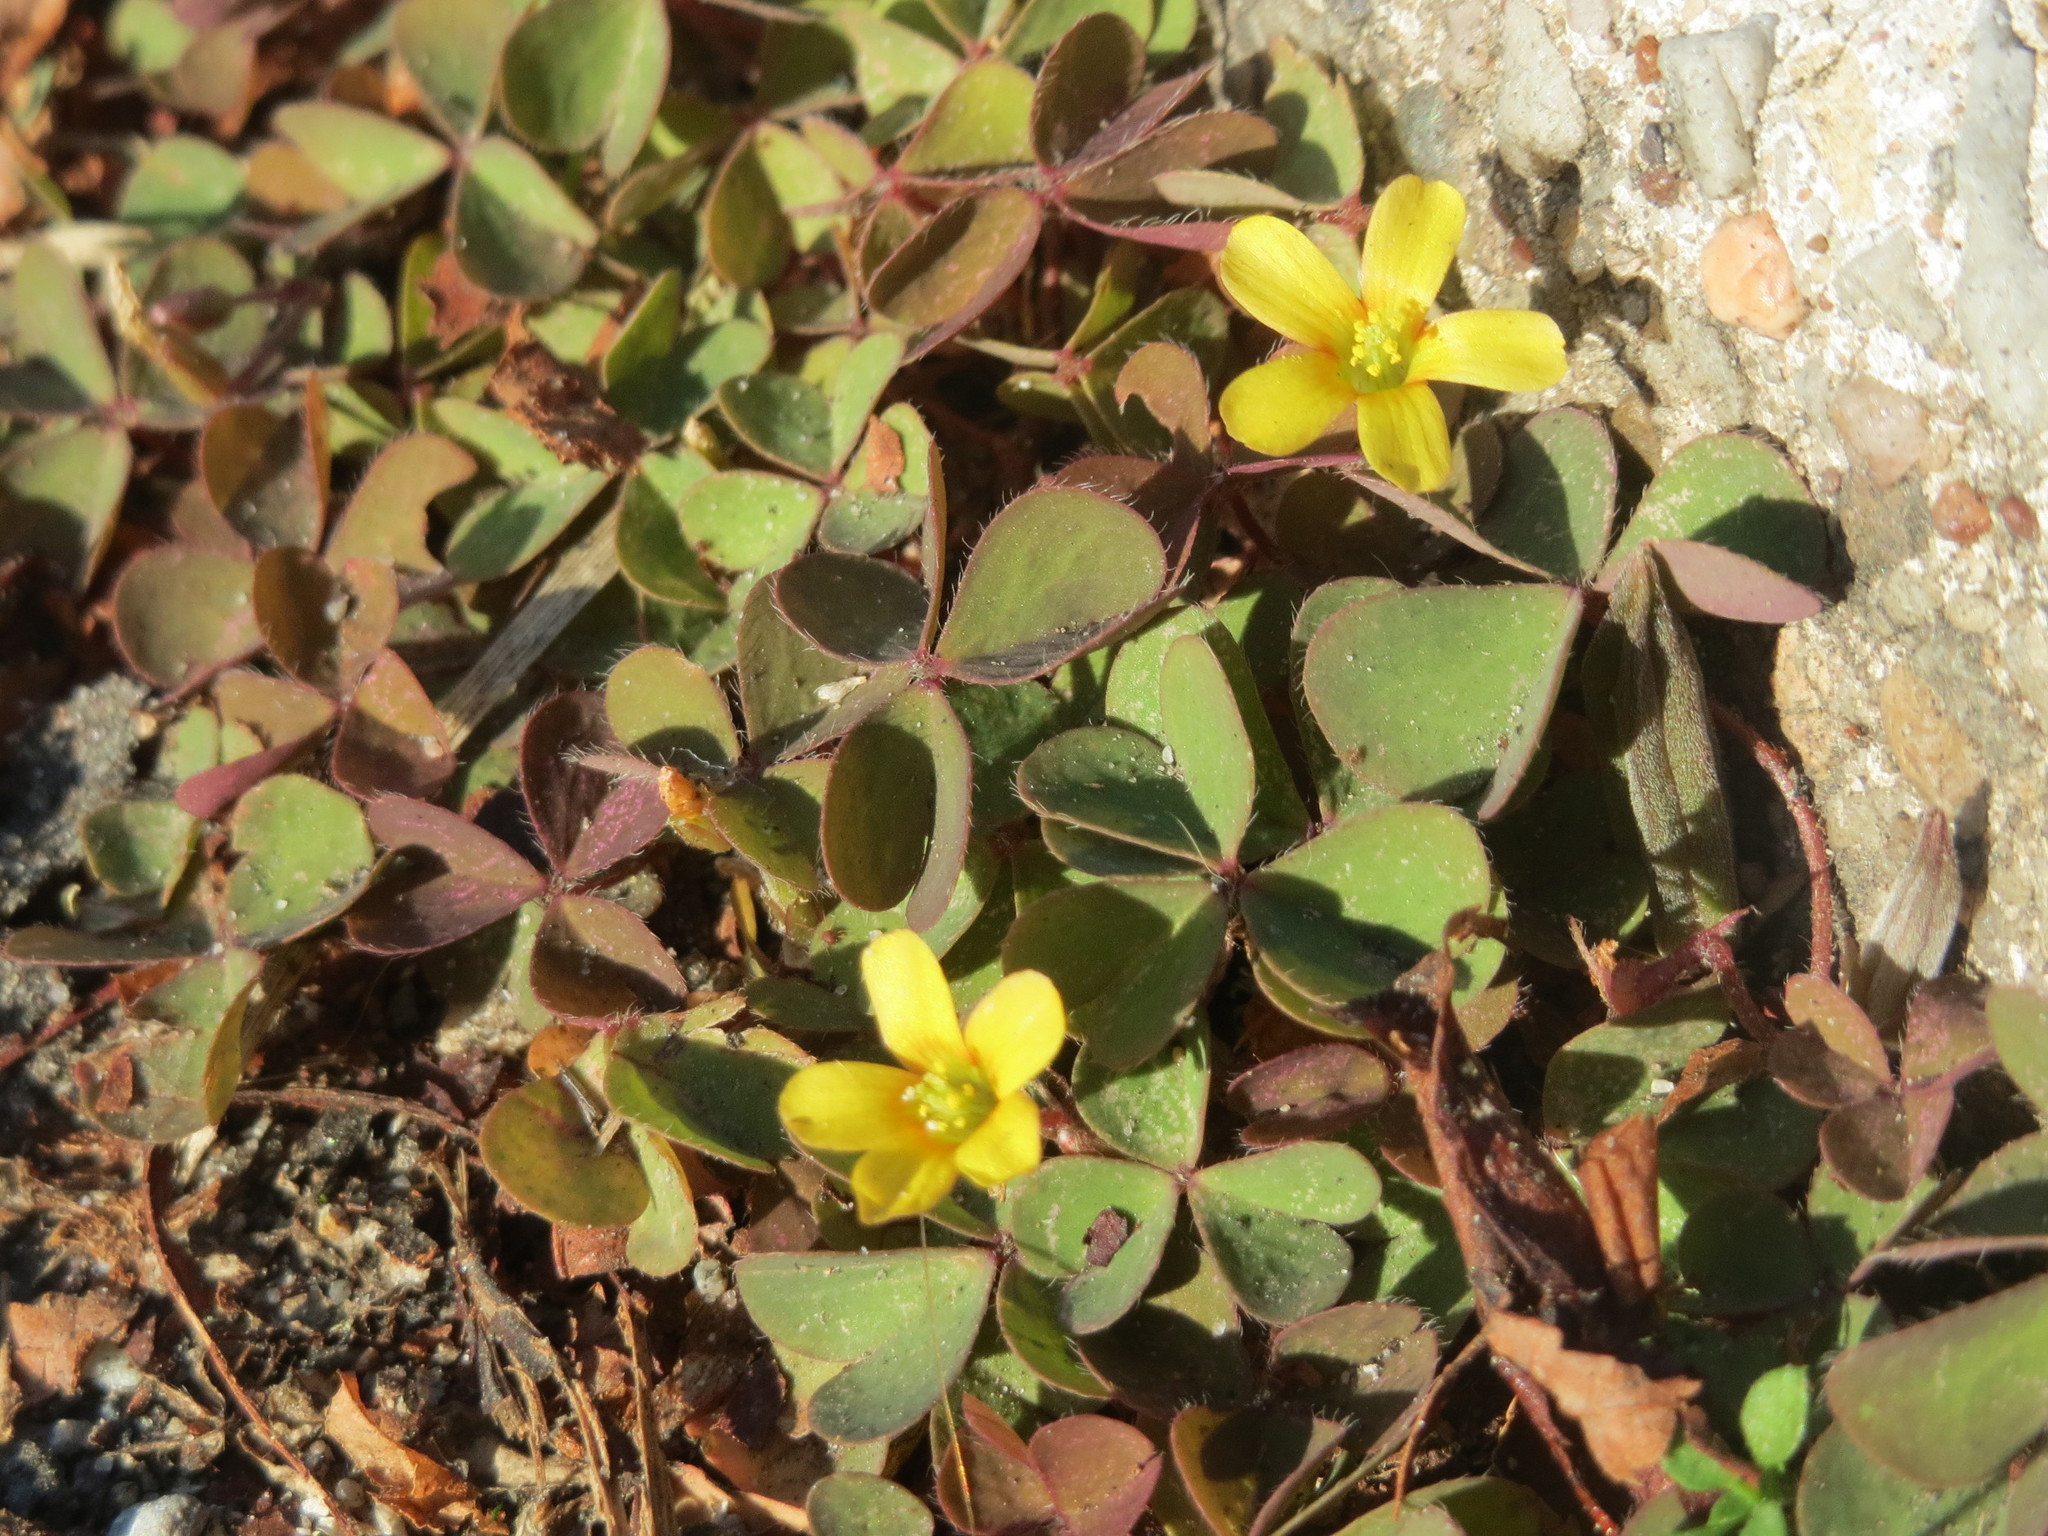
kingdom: Plantae
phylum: Tracheophyta
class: Magnoliopsida
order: Oxalidales
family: Oxalidaceae
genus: Oxalis
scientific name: Oxalis corniculata
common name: Procumbent yellow-sorrel
